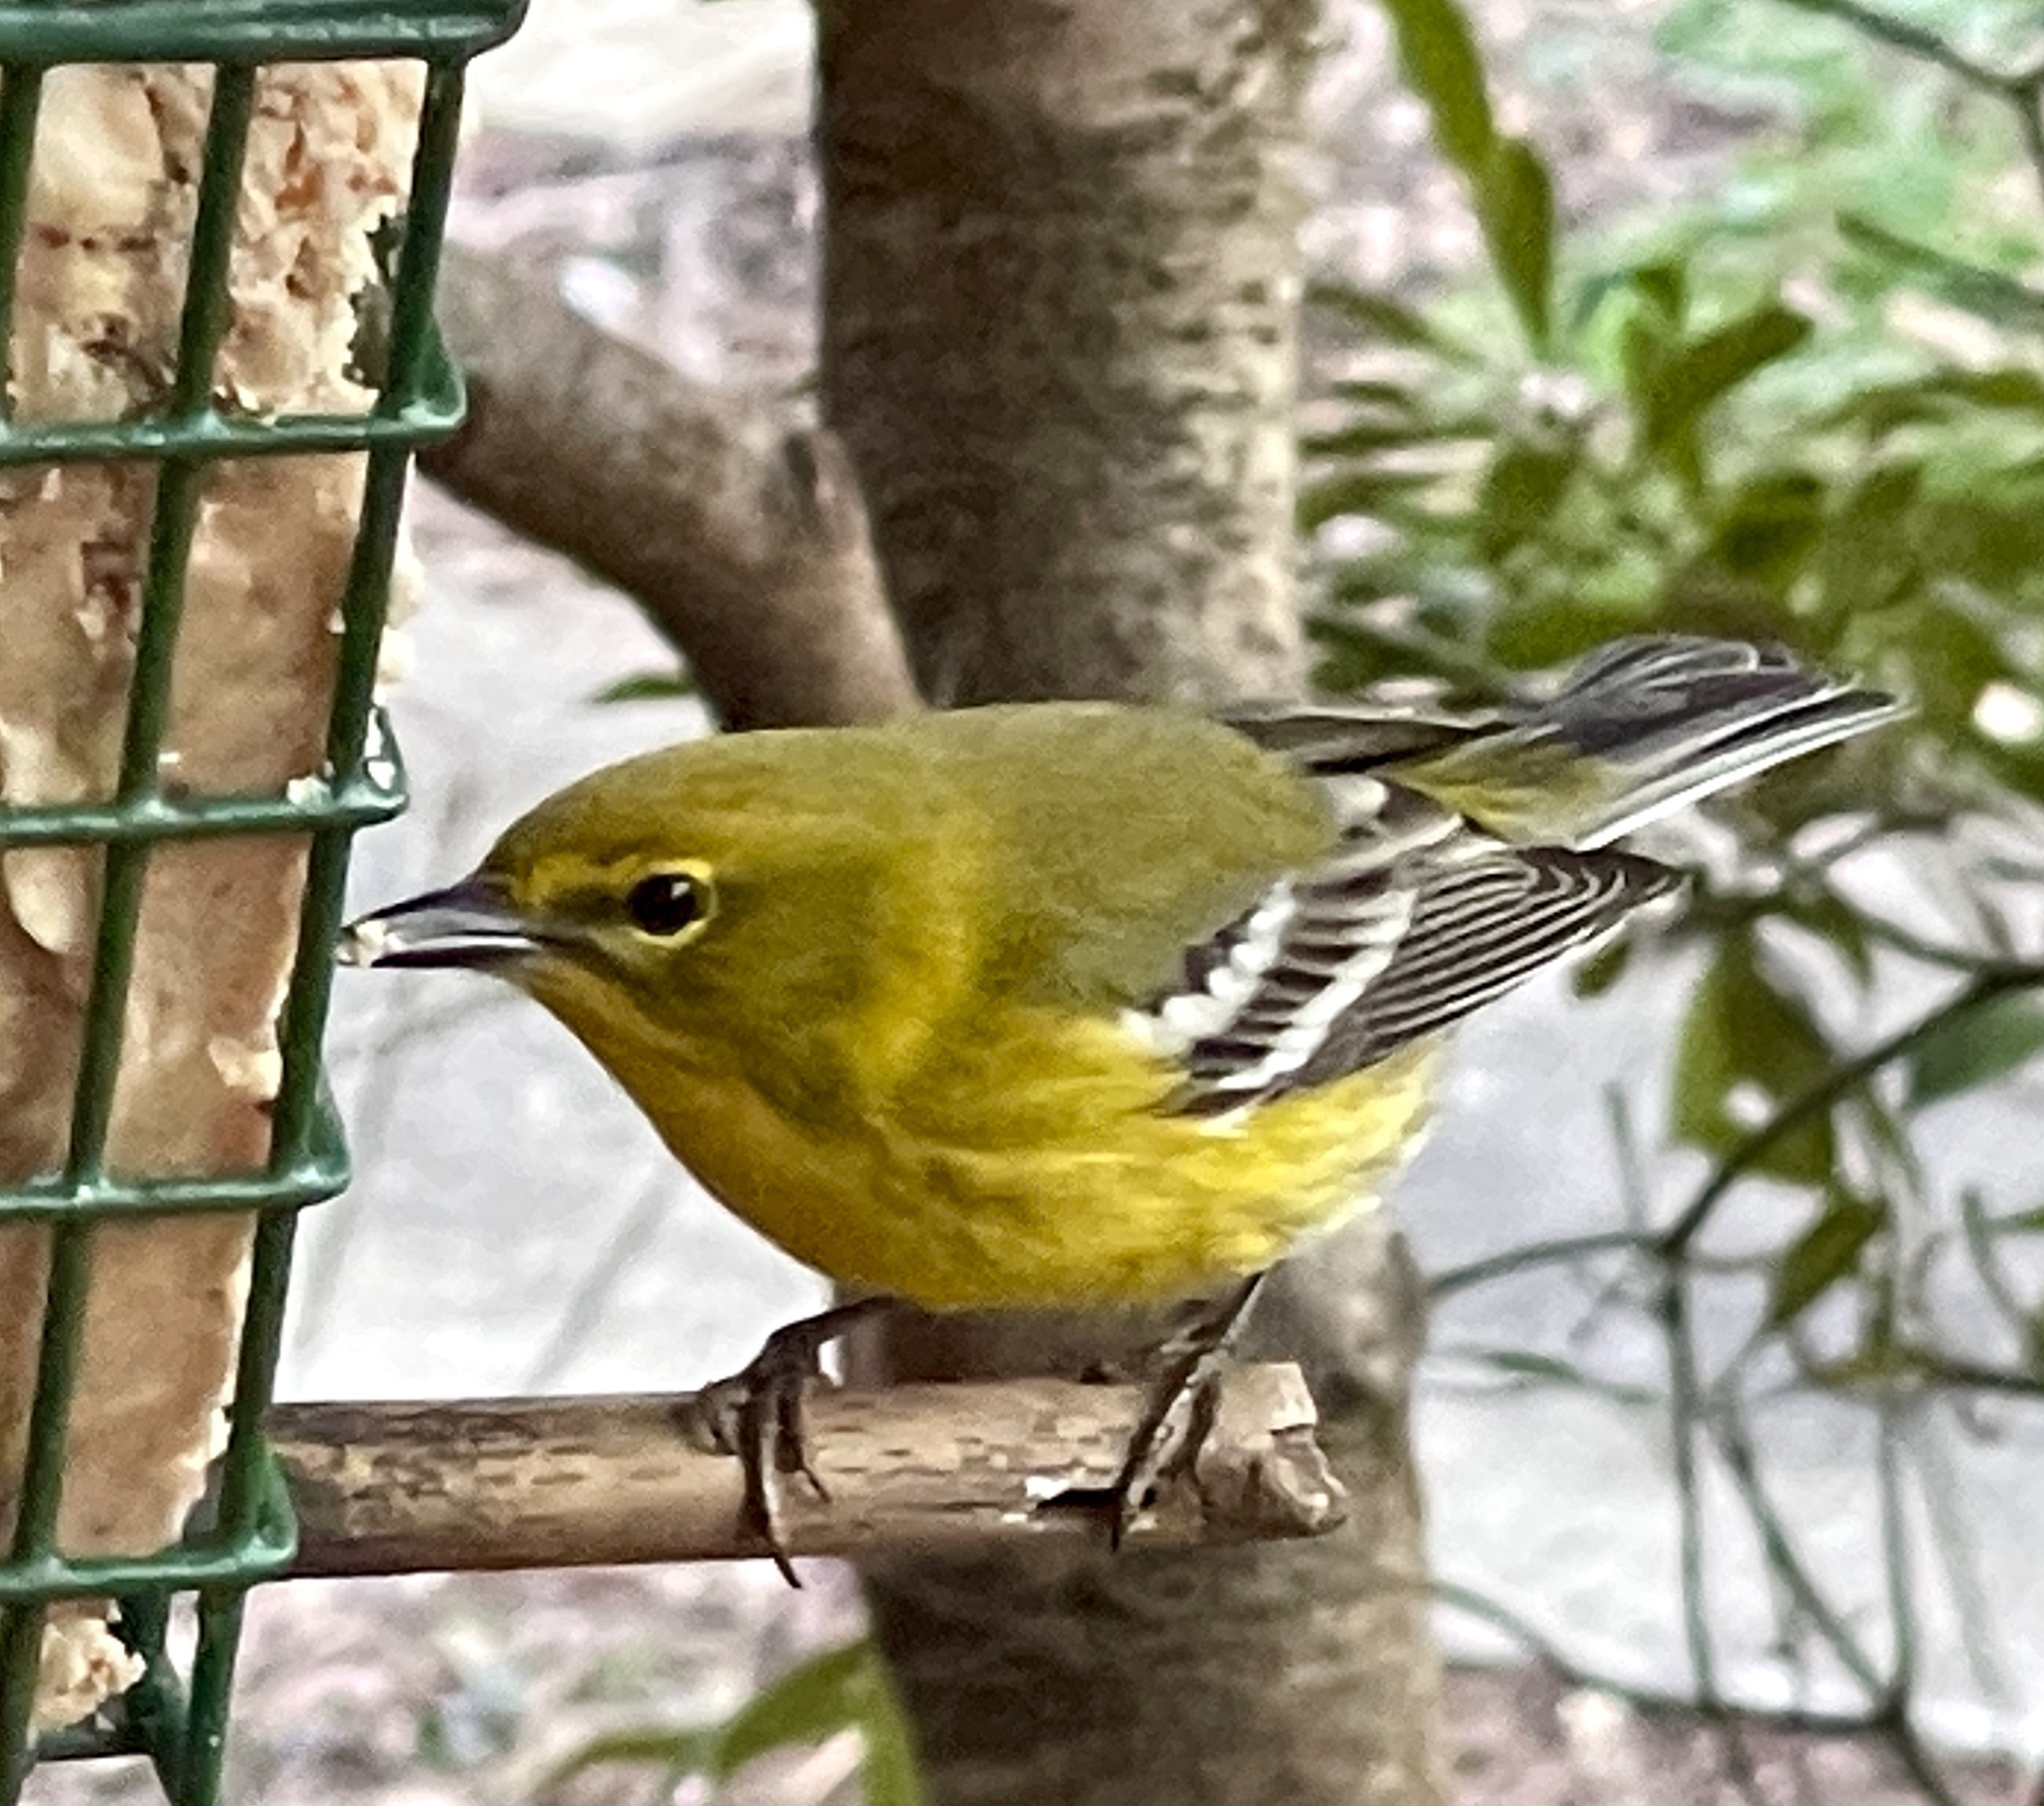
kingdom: Animalia
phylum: Chordata
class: Aves
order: Passeriformes
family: Parulidae
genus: Setophaga
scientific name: Setophaga pinus
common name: Pine warbler
